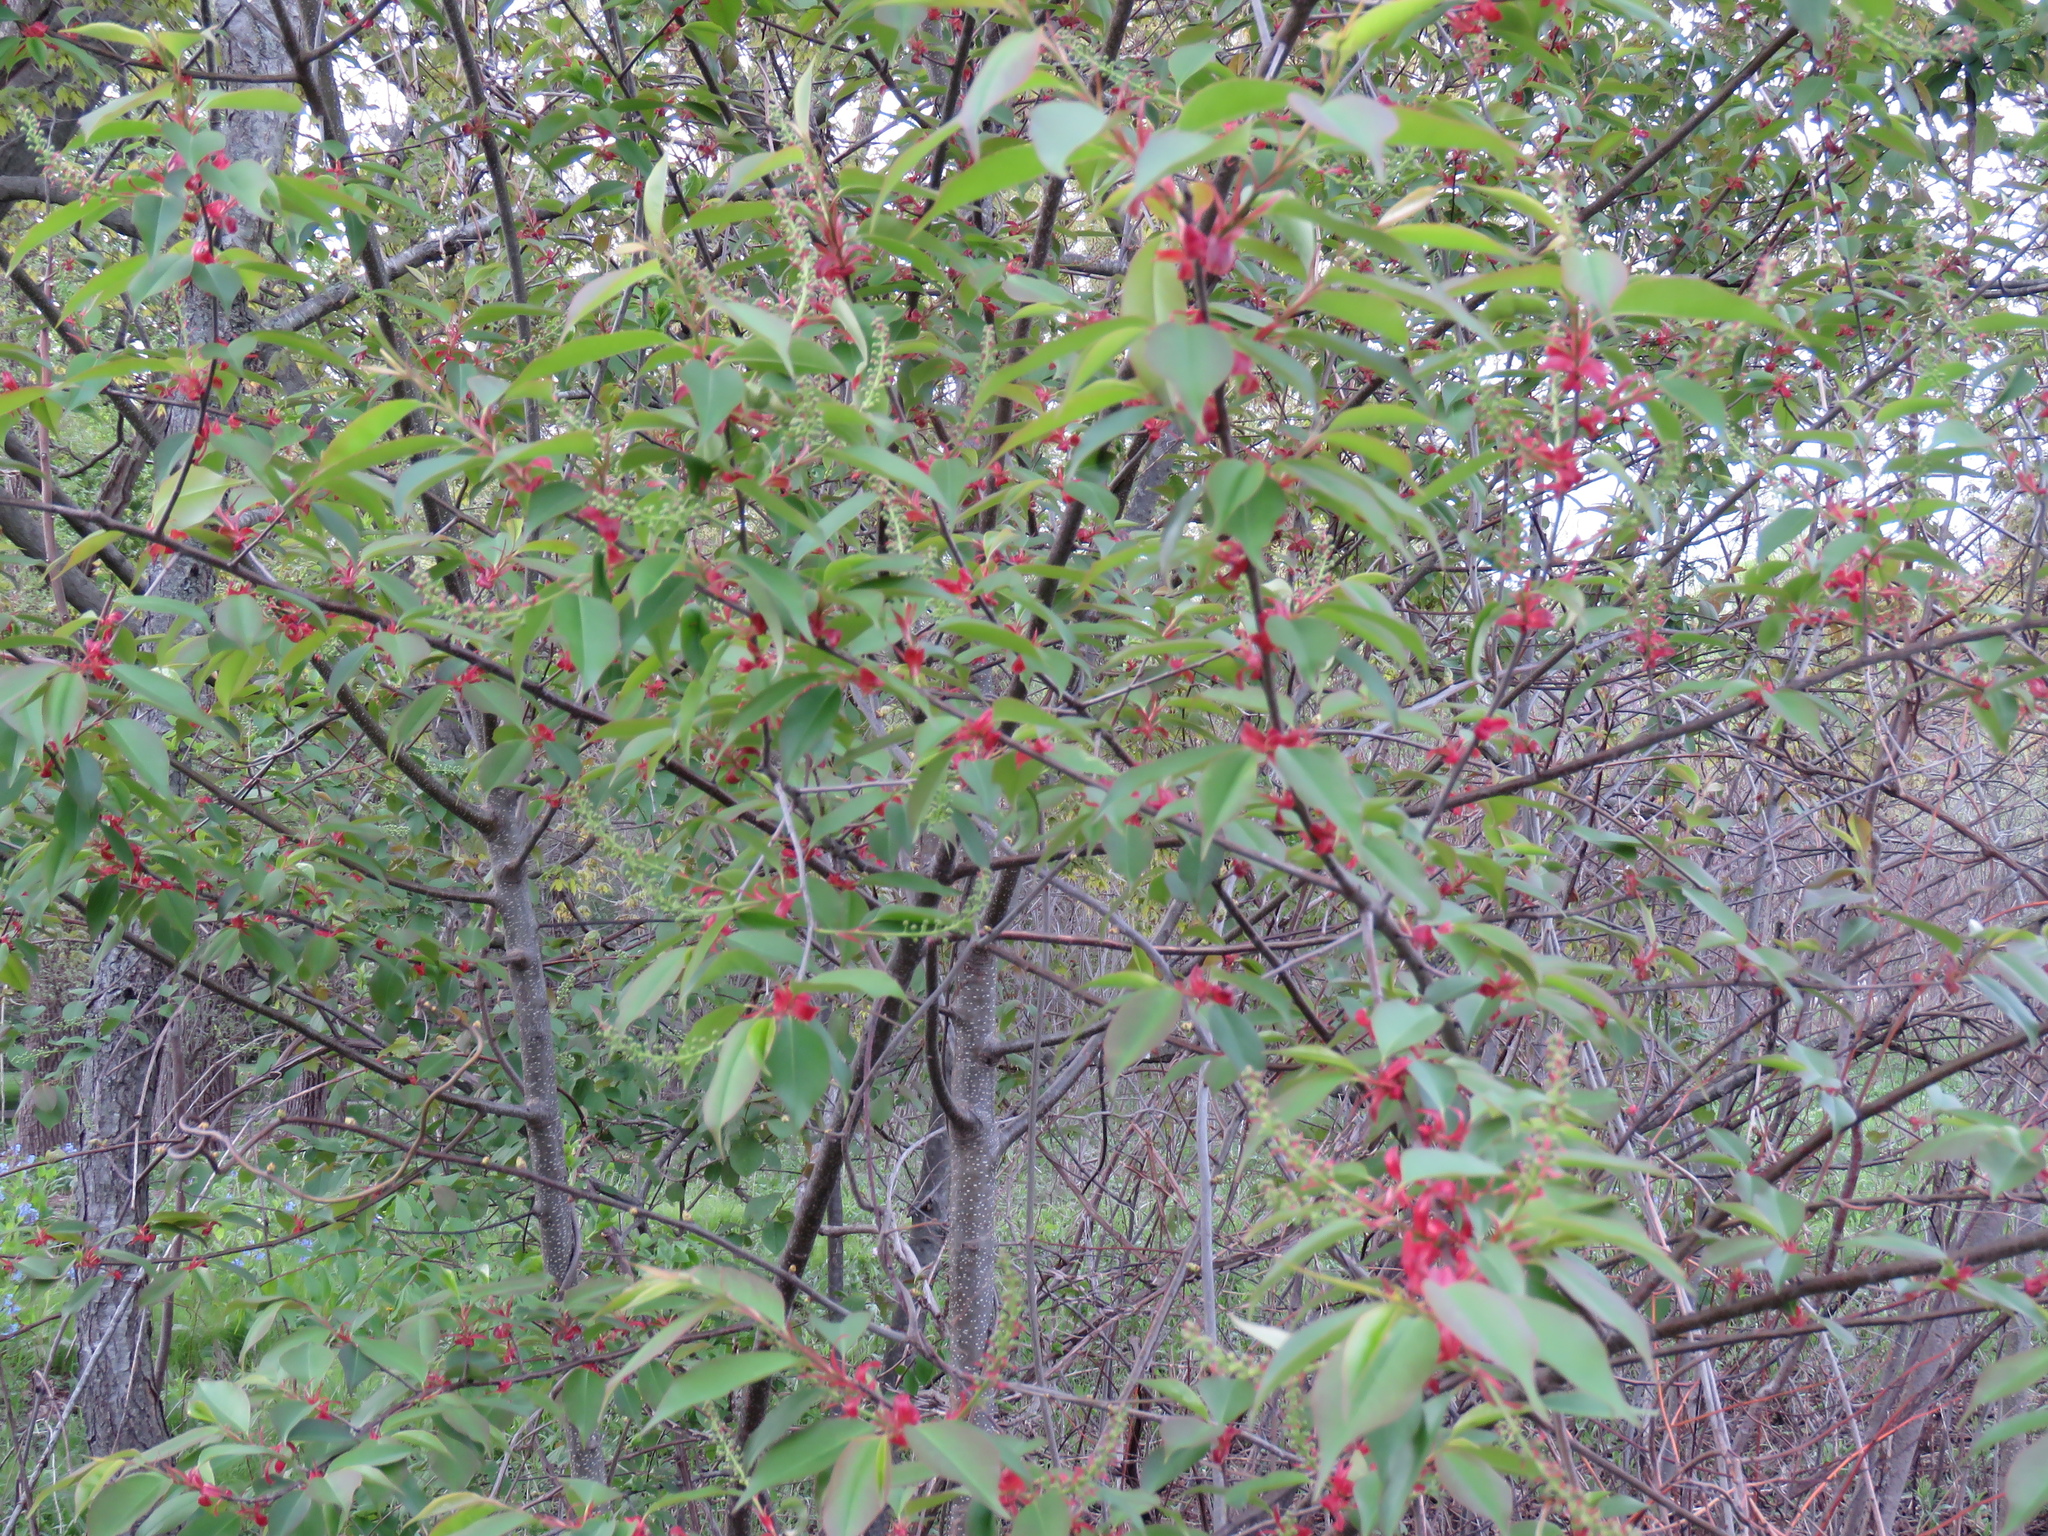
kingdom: Plantae
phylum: Tracheophyta
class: Magnoliopsida
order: Rosales
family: Rosaceae
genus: Prunus
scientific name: Prunus serotina
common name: Black cherry
